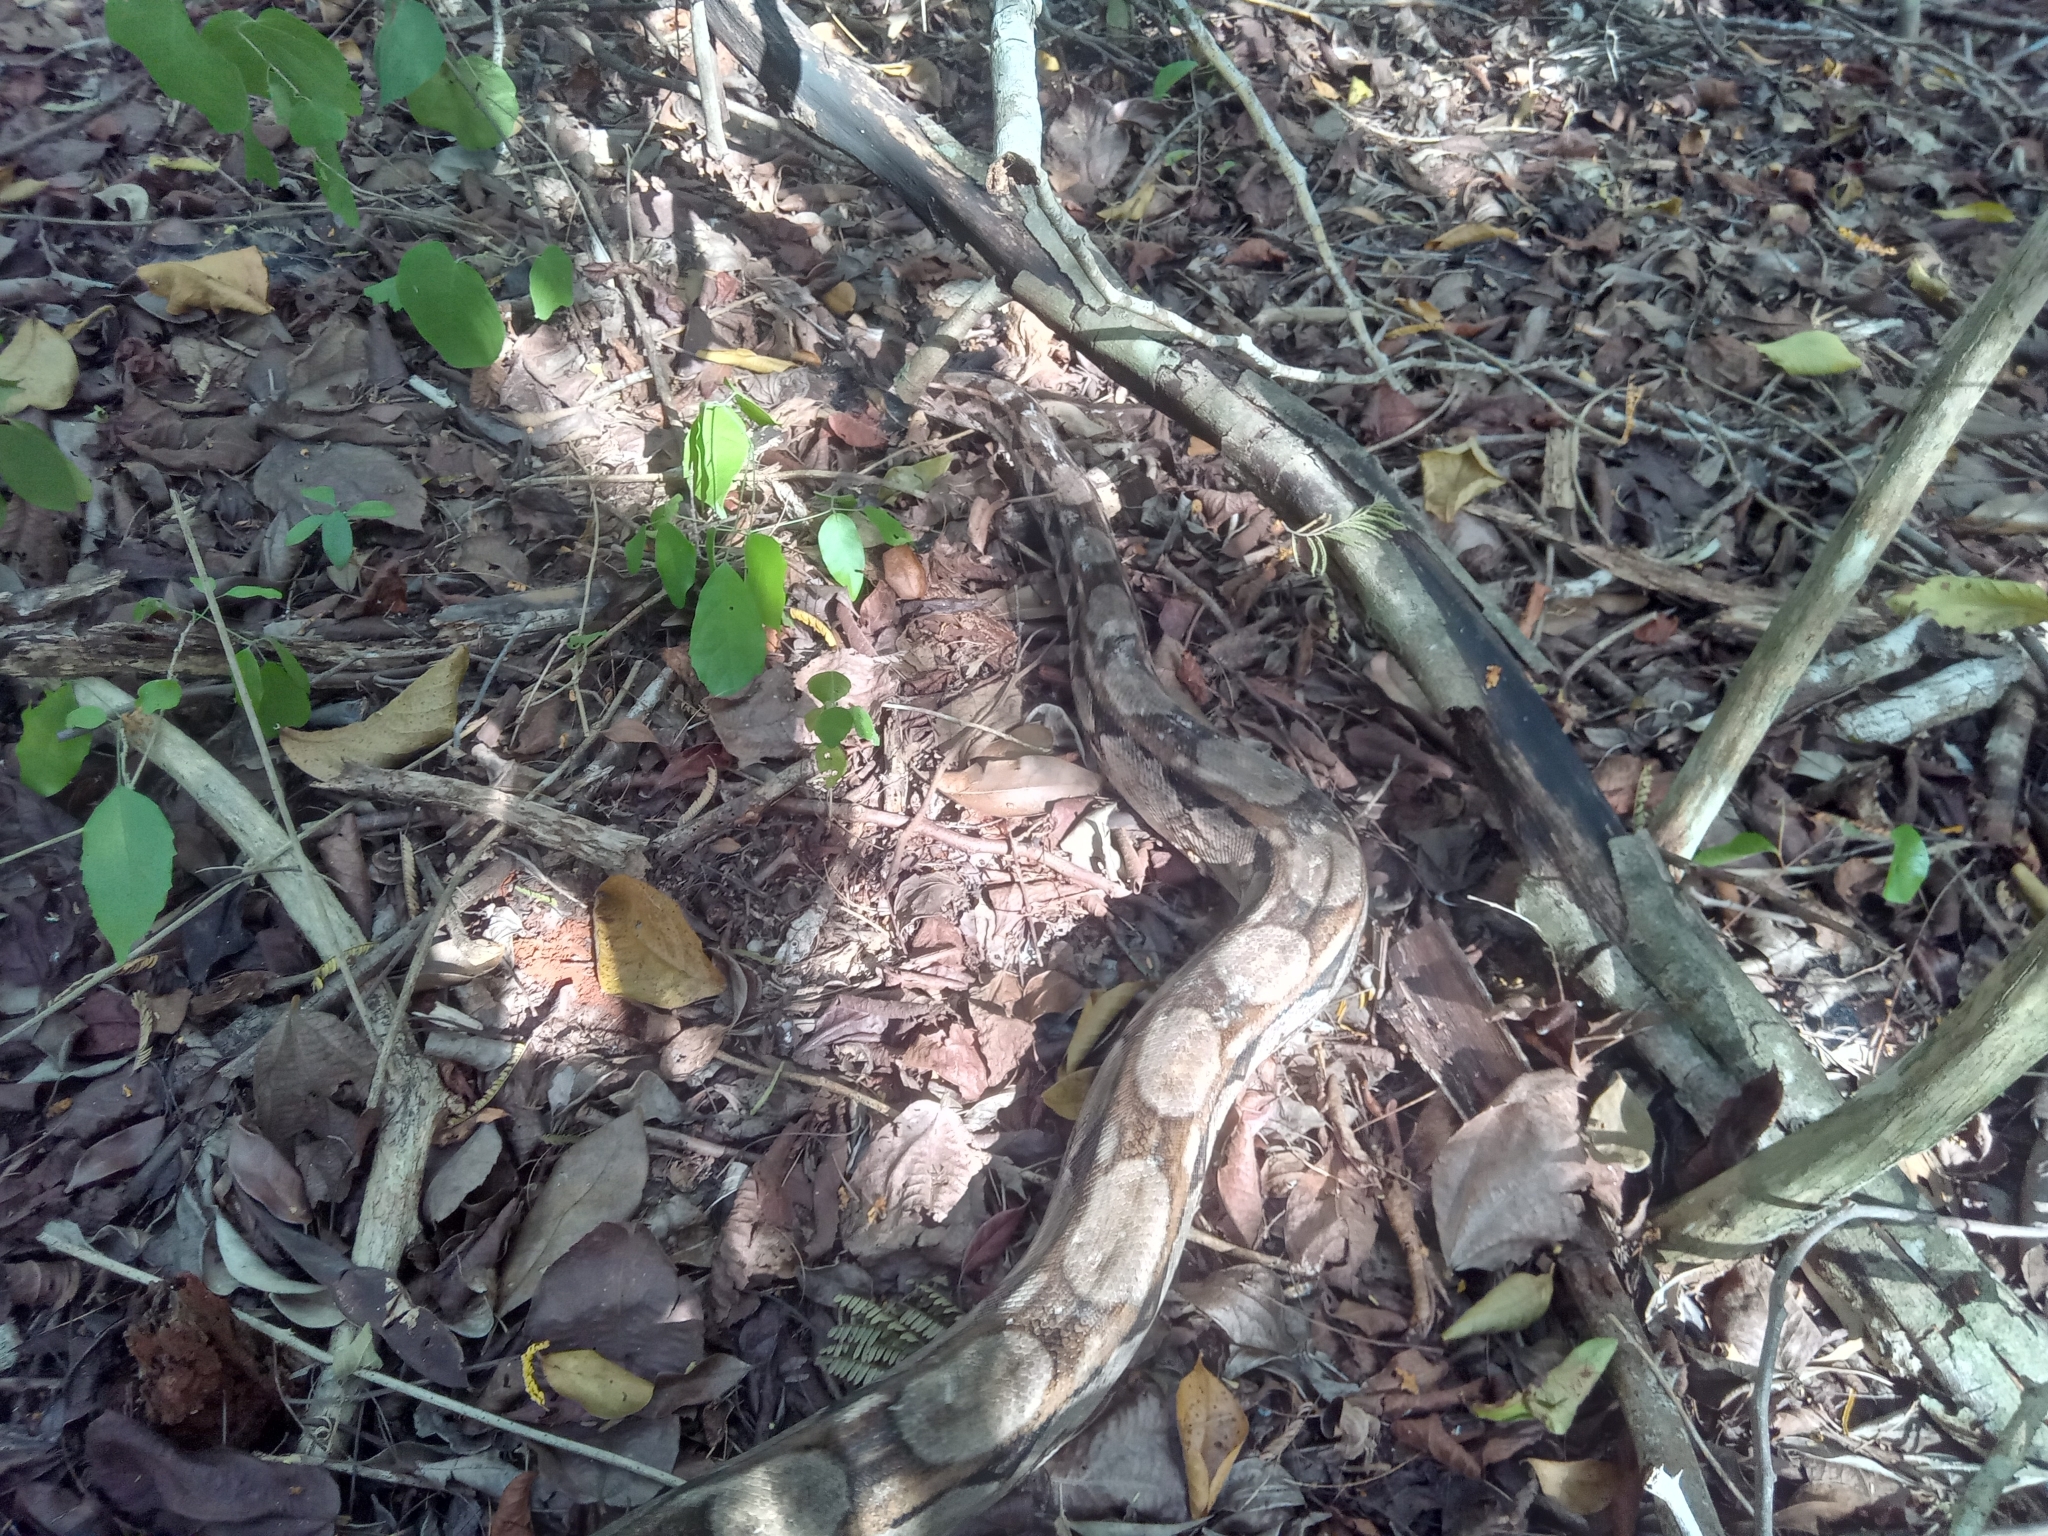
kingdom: Animalia
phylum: Chordata
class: Squamata
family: Boidae
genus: Boa
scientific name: Boa imperator
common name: Central american boa
